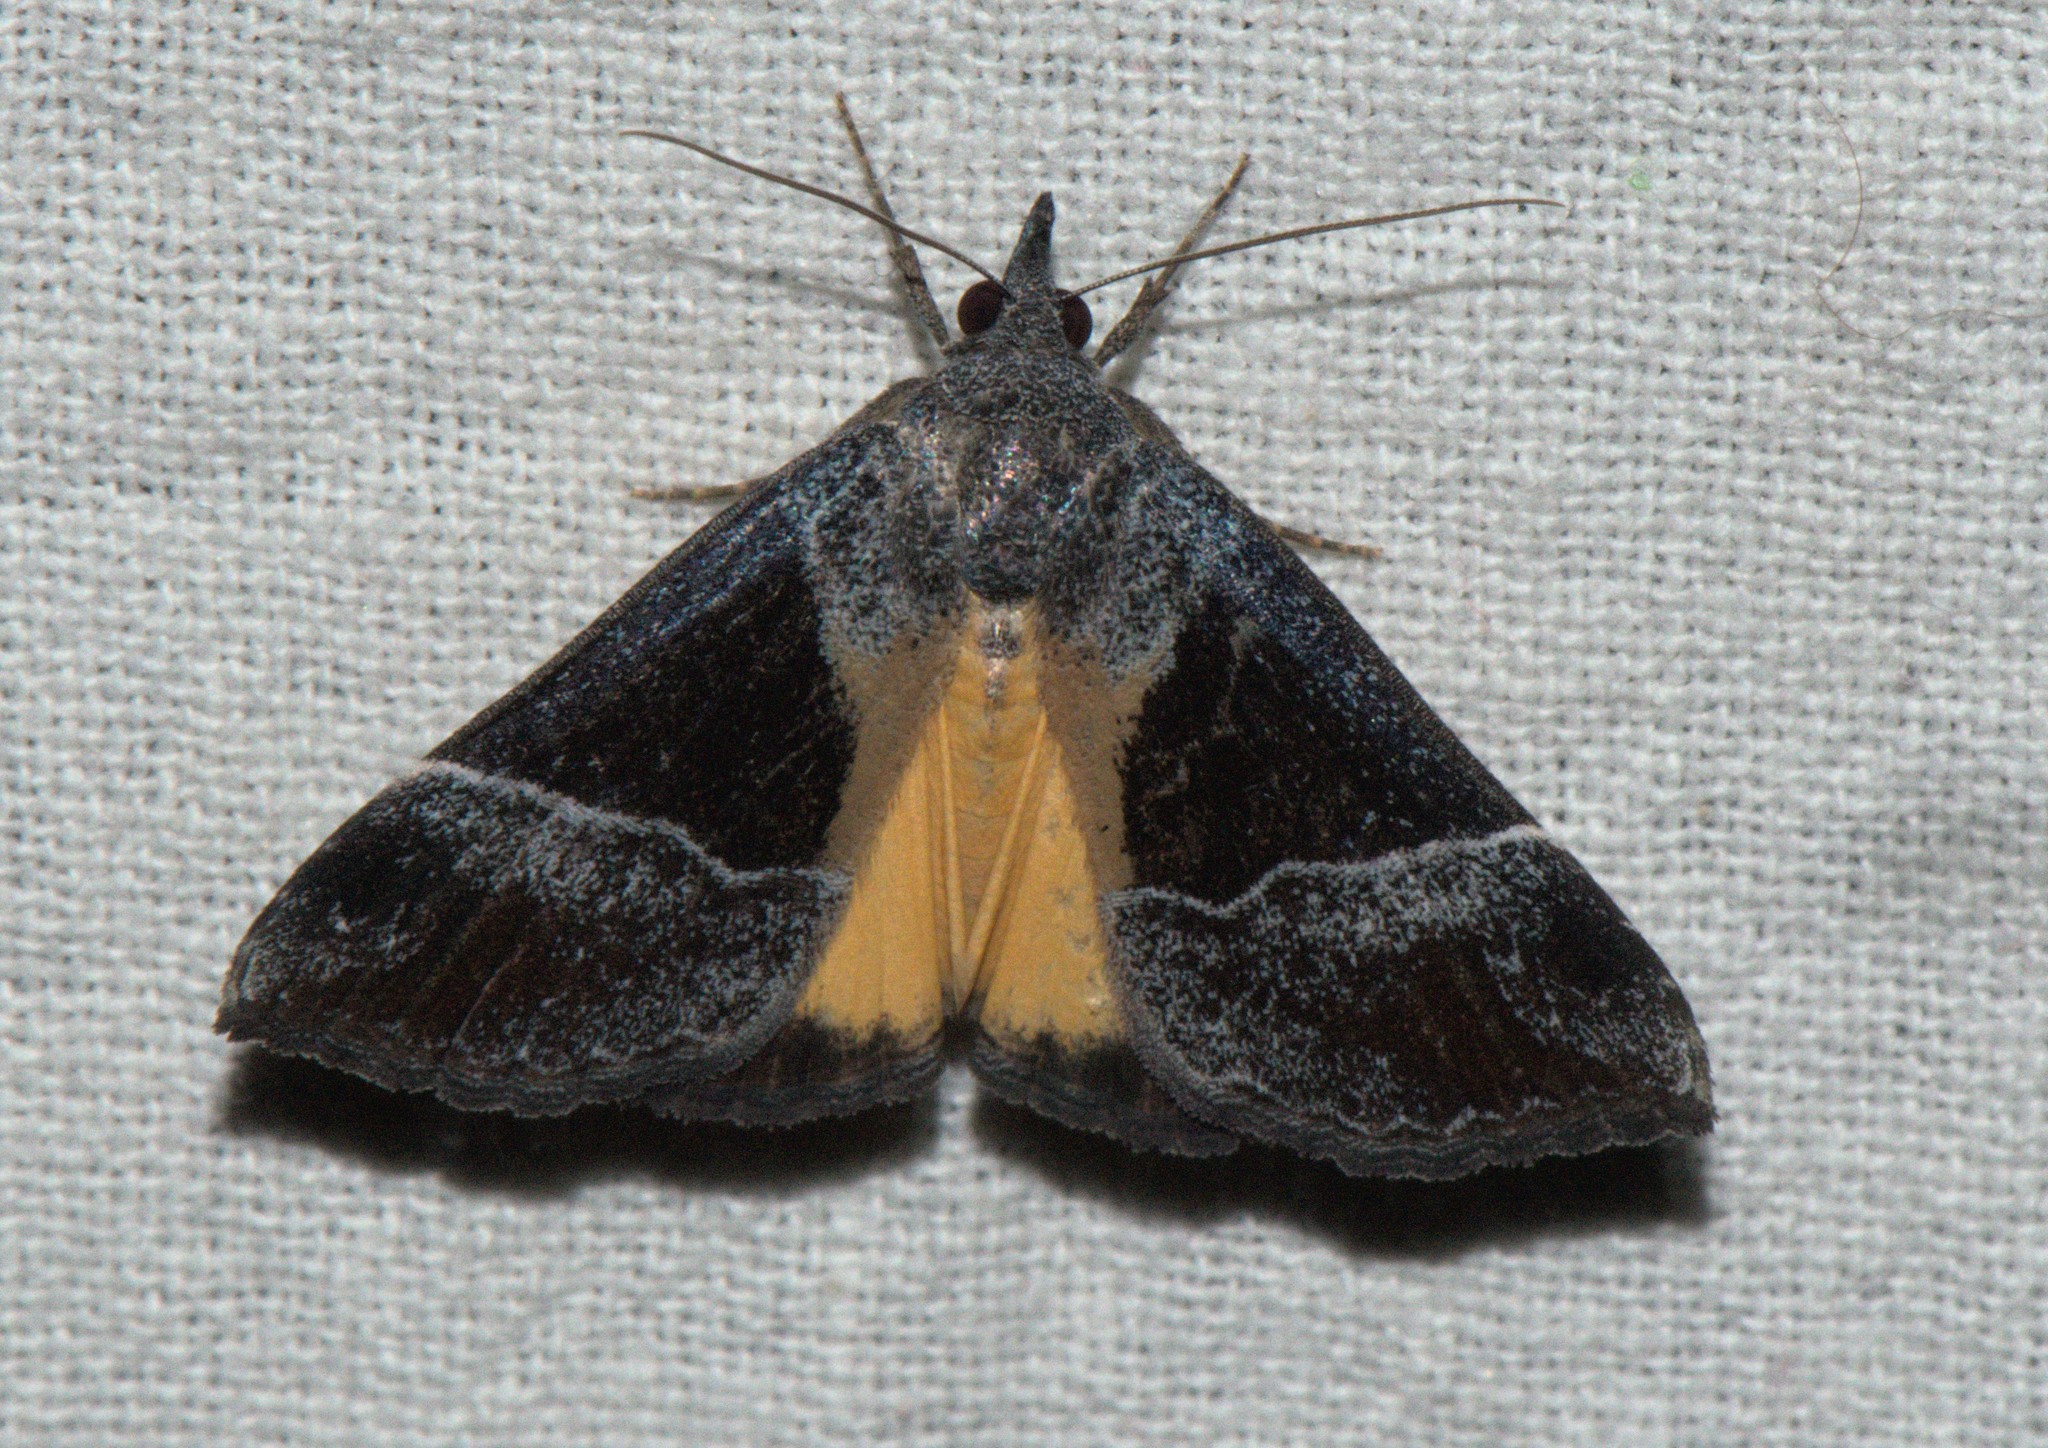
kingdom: Animalia
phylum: Arthropoda
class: Insecta
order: Lepidoptera
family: Erebidae
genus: Hypena
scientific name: Hypena amica
